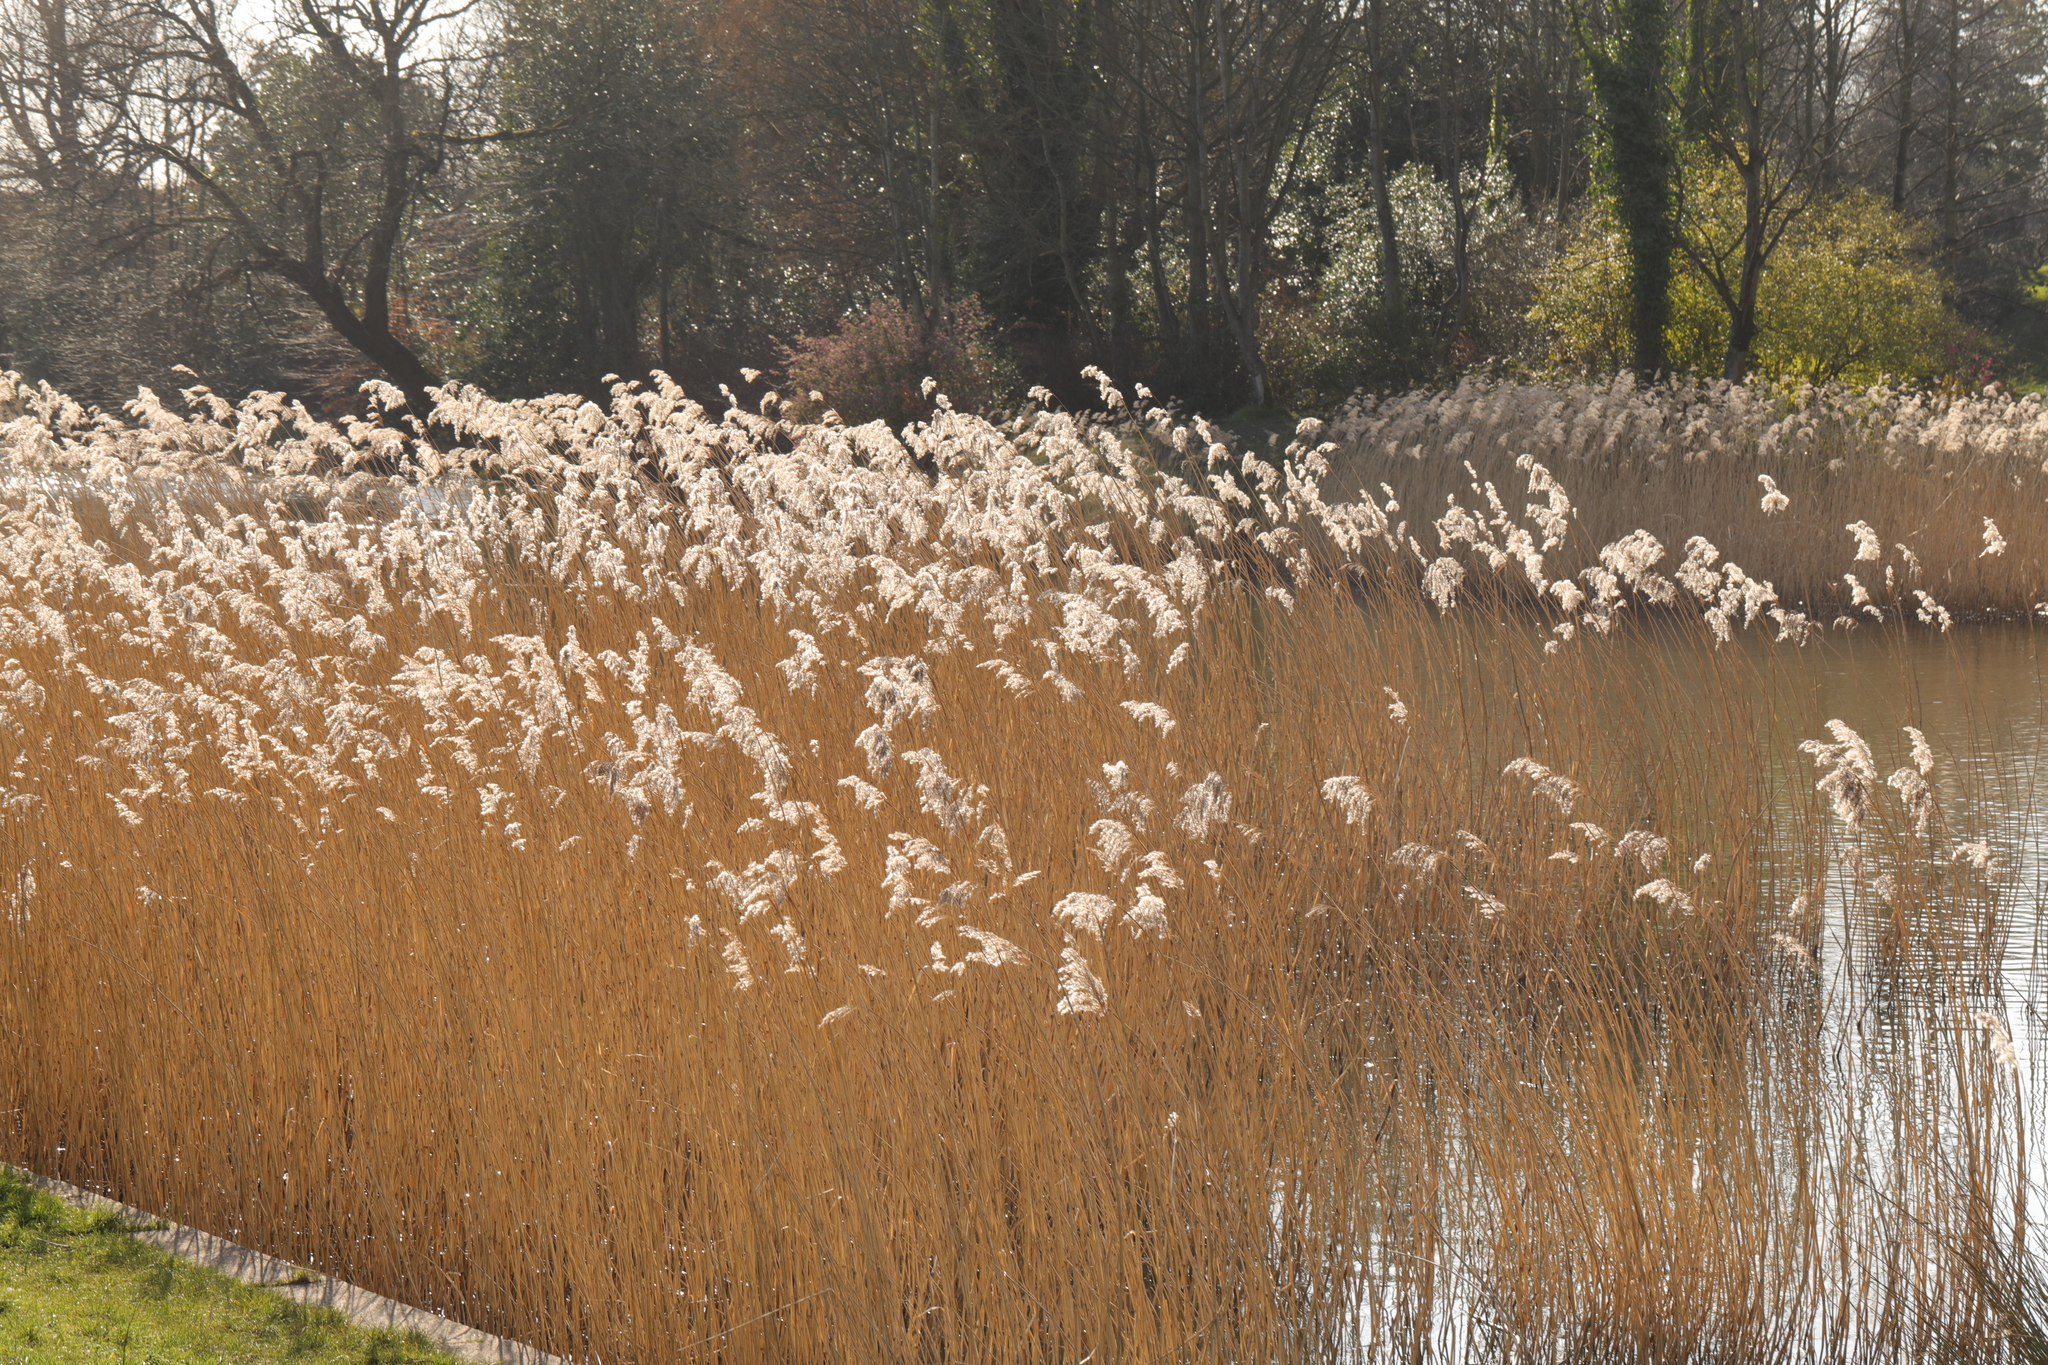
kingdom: Plantae
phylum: Tracheophyta
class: Liliopsida
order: Poales
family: Poaceae
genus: Phragmites
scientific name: Phragmites australis
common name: Common reed
